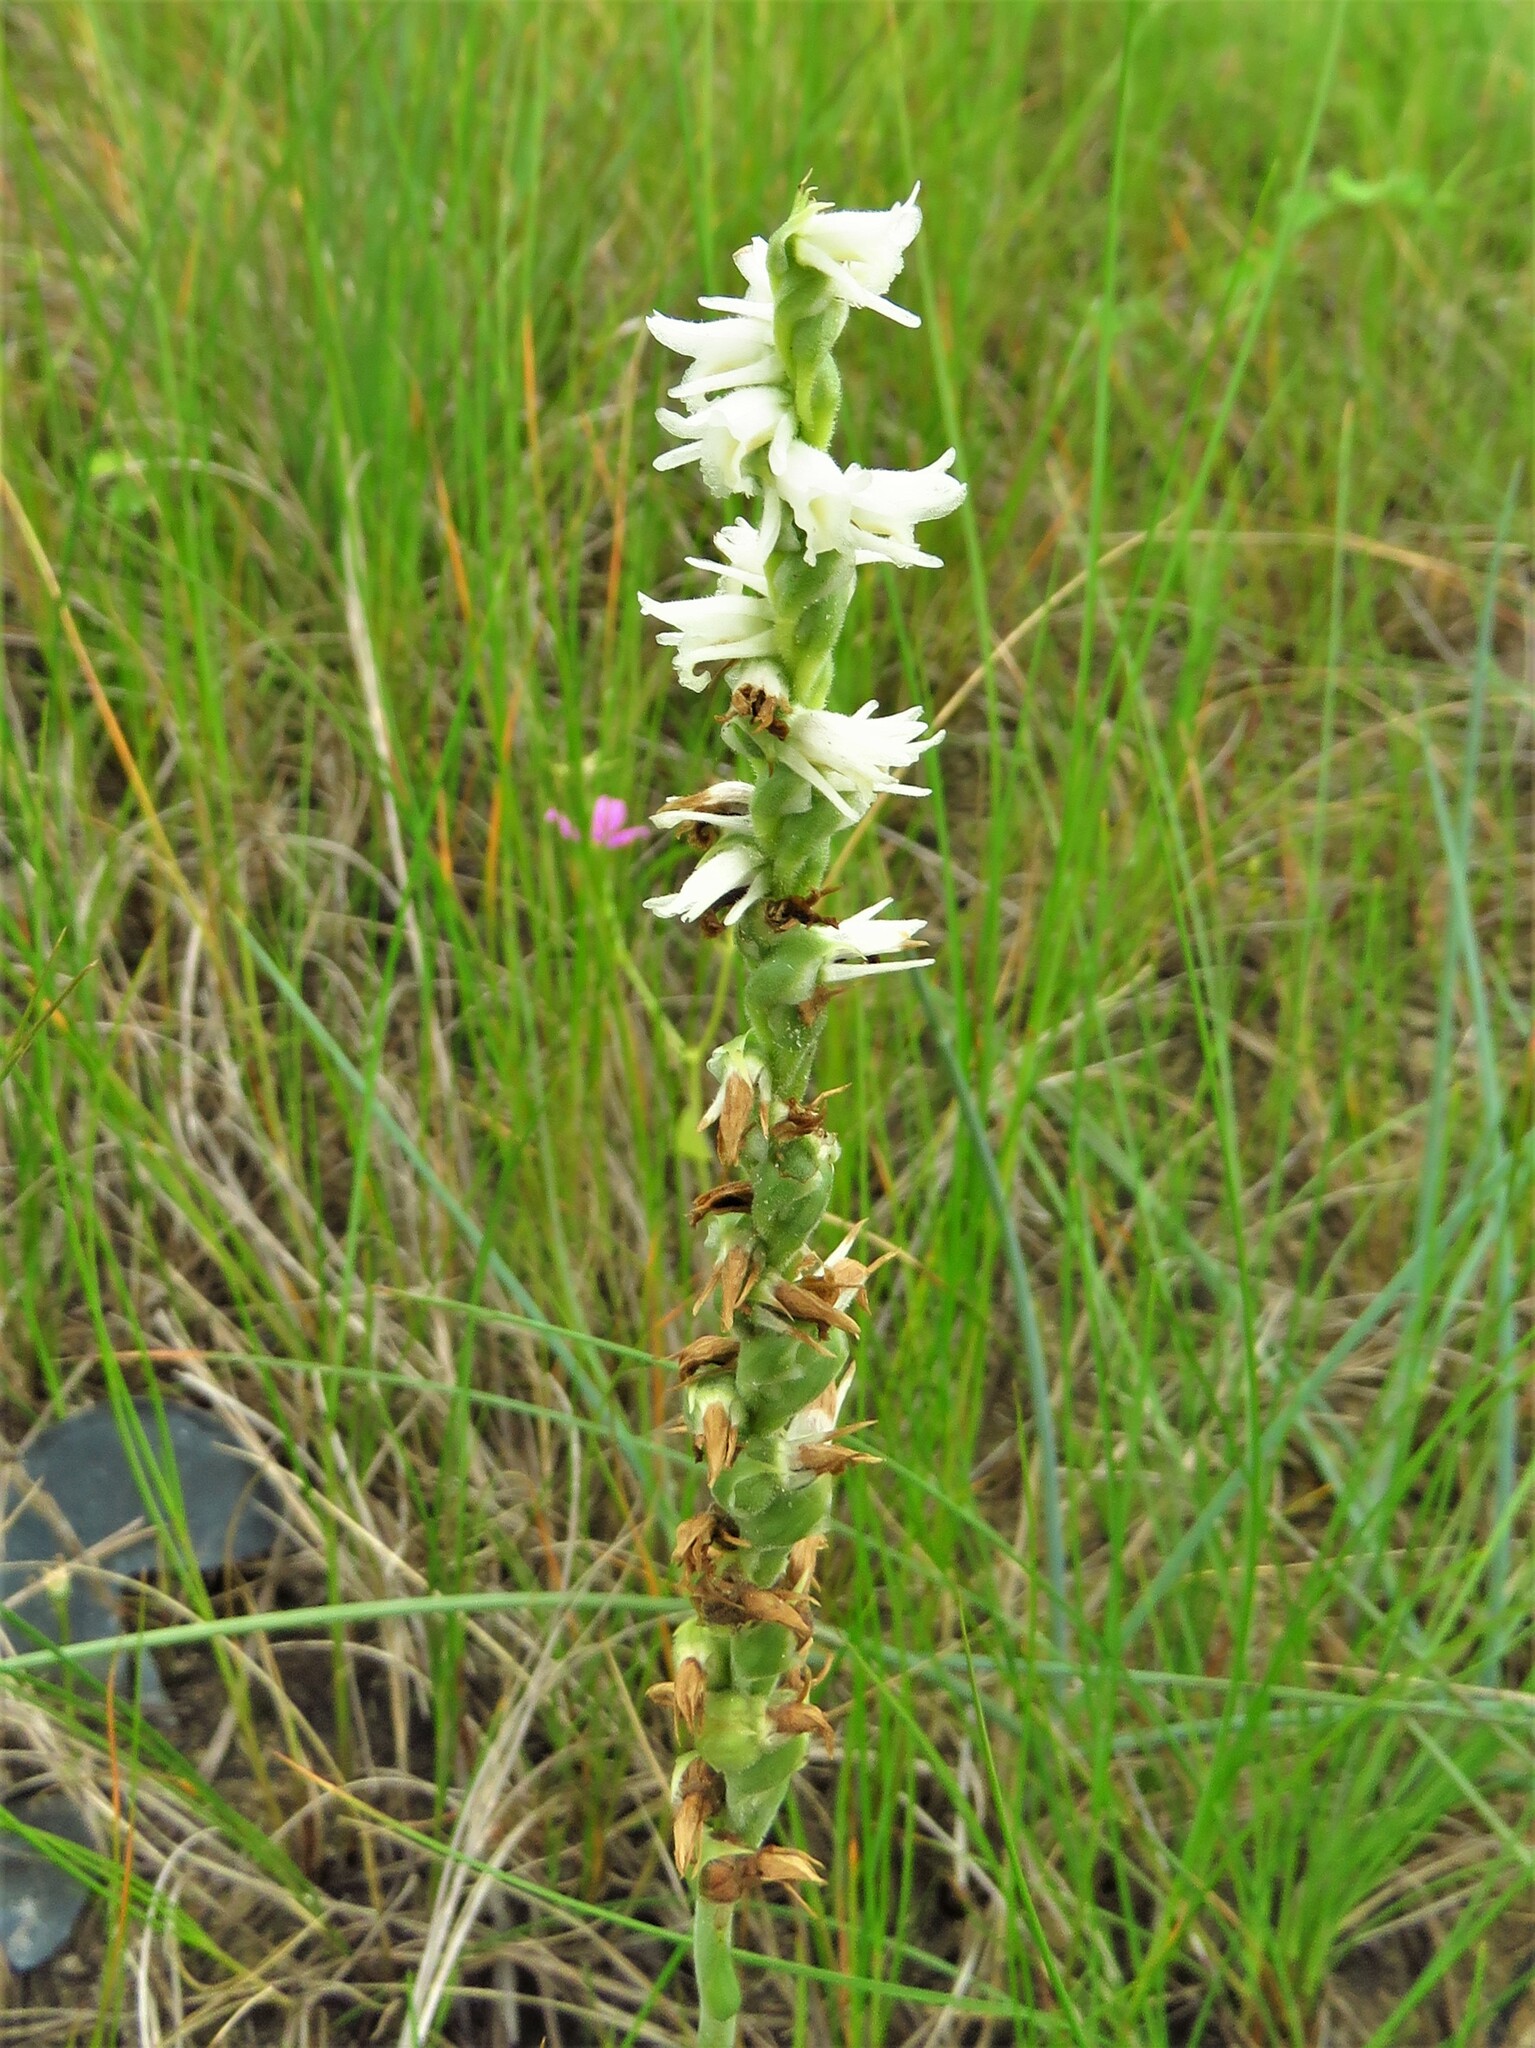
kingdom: Plantae
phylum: Tracheophyta
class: Liliopsida
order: Asparagales
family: Orchidaceae
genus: Spiranthes
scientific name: Spiranthes vernalis
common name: Spring ladies'-tresses
